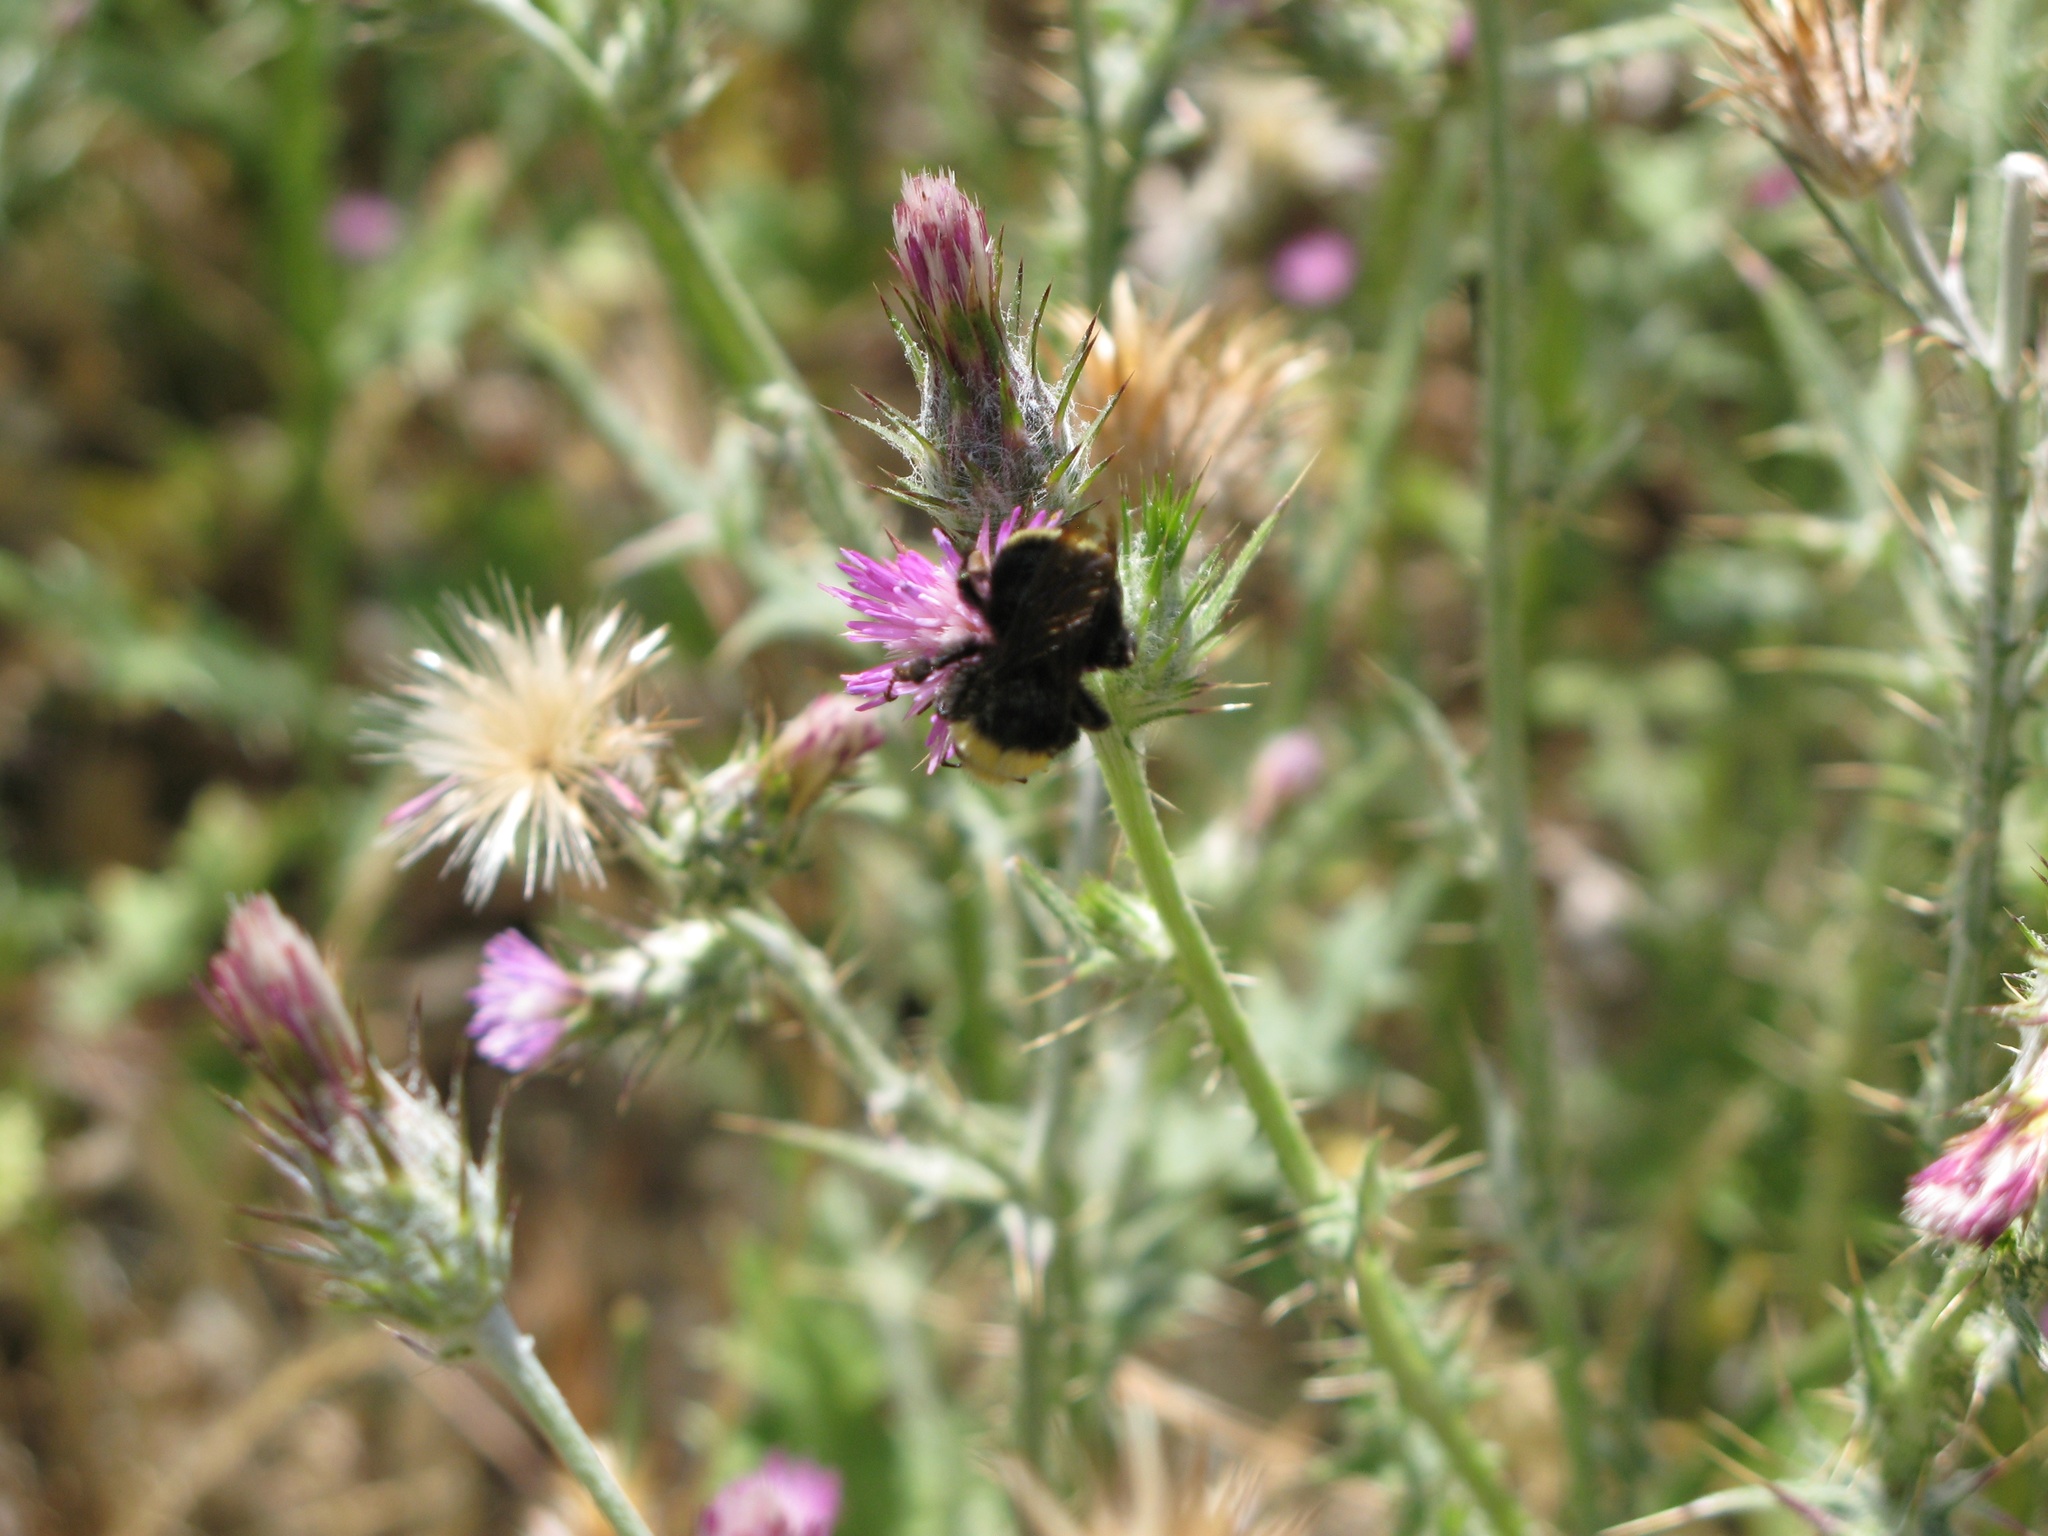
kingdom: Animalia
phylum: Arthropoda
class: Insecta
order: Hymenoptera
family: Apidae
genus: Bombus
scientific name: Bombus vosnesenskii
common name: Vosnesensky bumble bee
